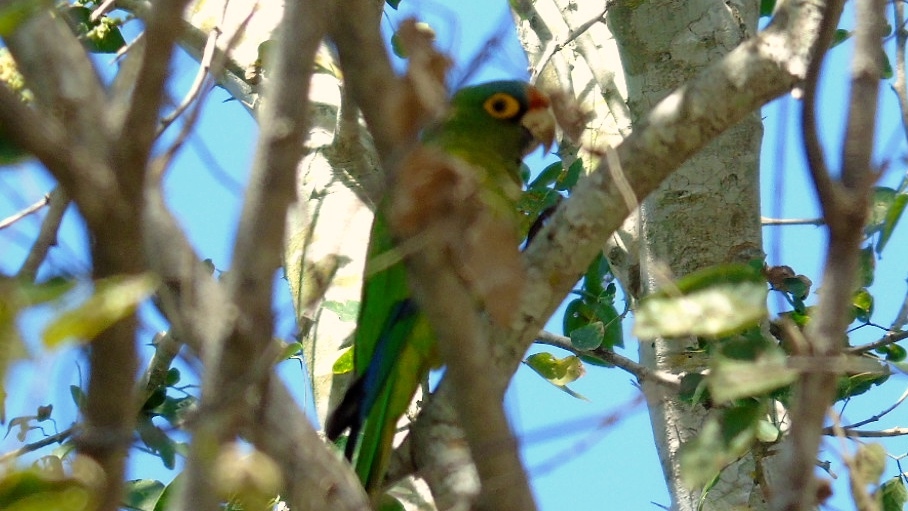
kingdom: Animalia
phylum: Chordata
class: Aves
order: Psittaciformes
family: Psittacidae
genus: Aratinga
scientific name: Aratinga canicularis
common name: Orange-fronted parakeet
